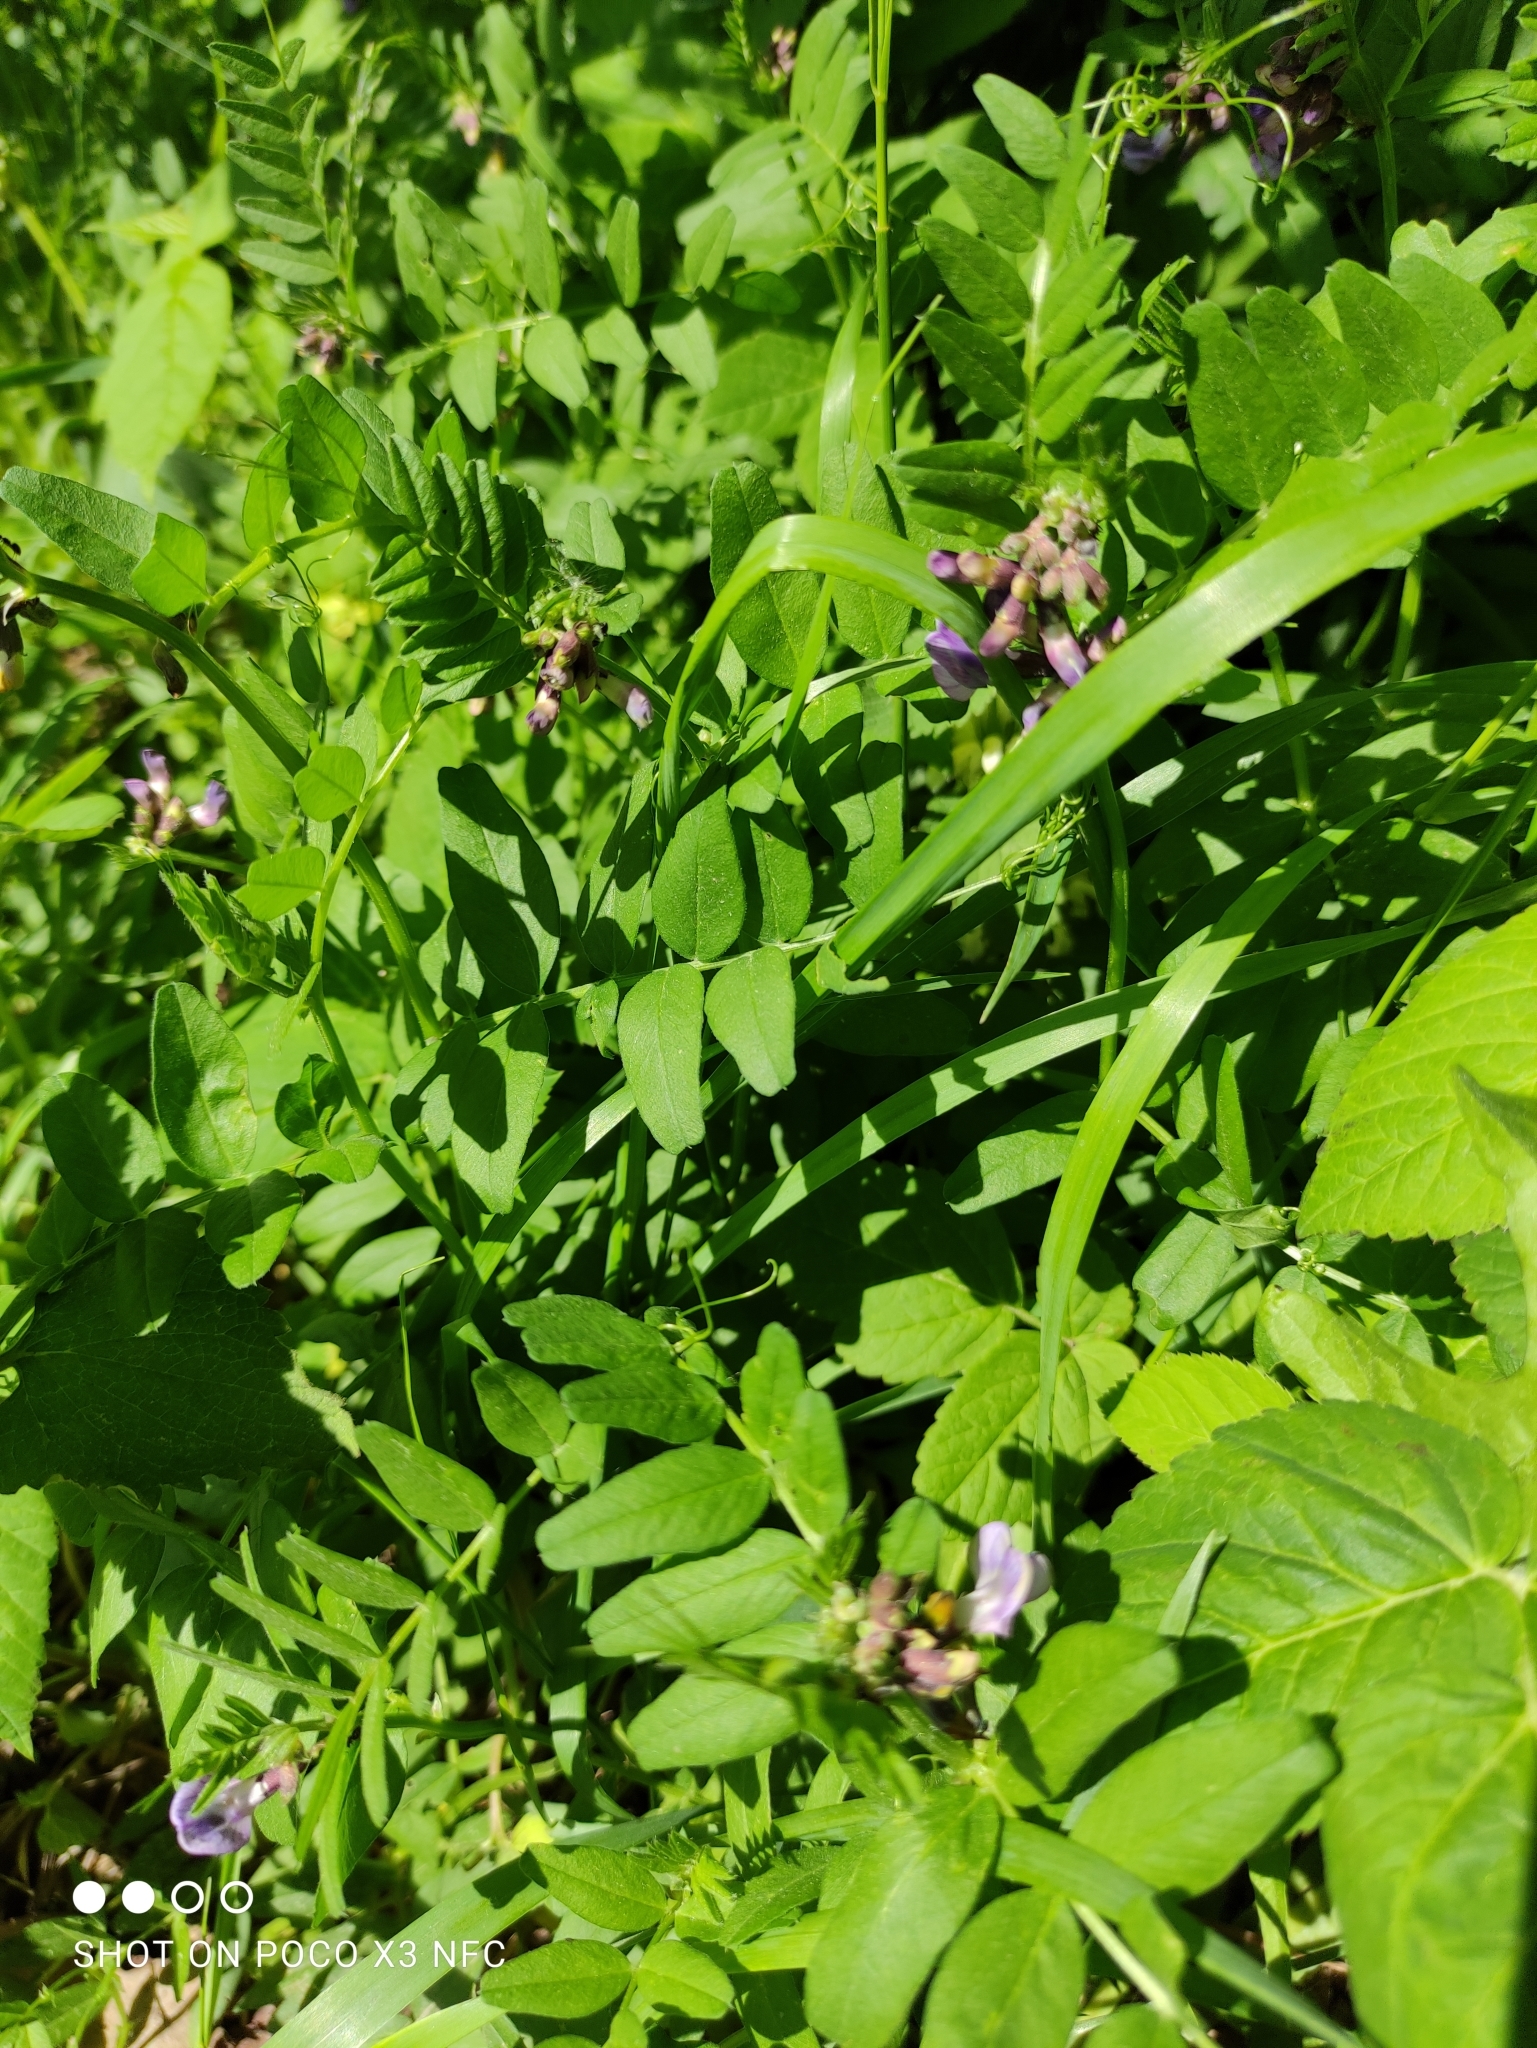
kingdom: Plantae
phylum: Tracheophyta
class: Magnoliopsida
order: Fabales
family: Fabaceae
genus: Vicia
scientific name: Vicia sepium
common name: Bush vetch
